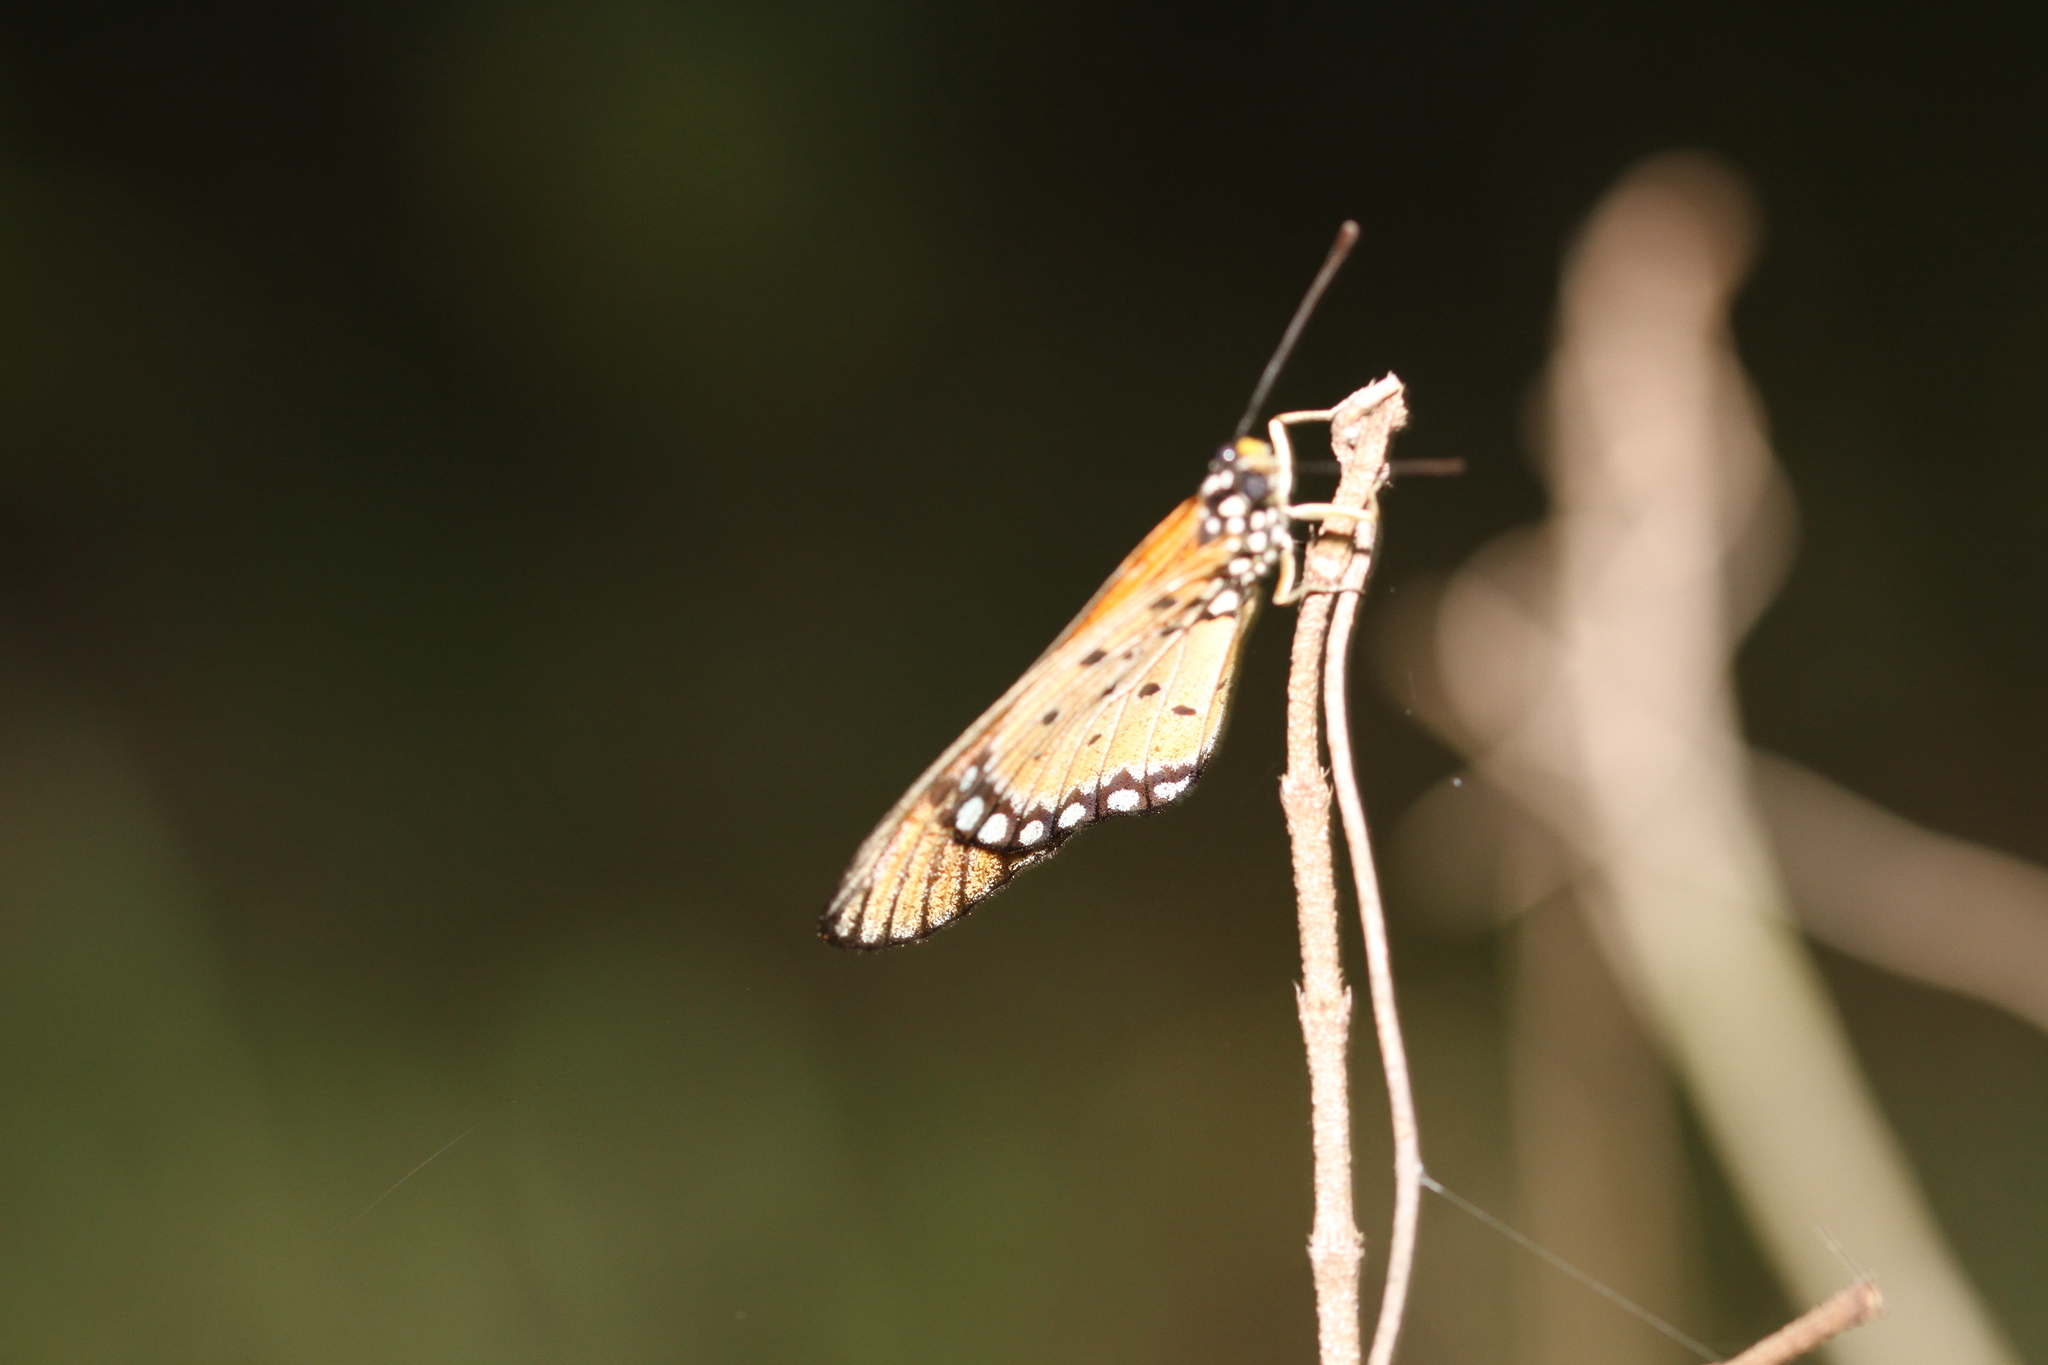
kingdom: Animalia
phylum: Arthropoda
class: Insecta
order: Lepidoptera
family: Nymphalidae
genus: Acraea
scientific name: Acraea terpsicore
